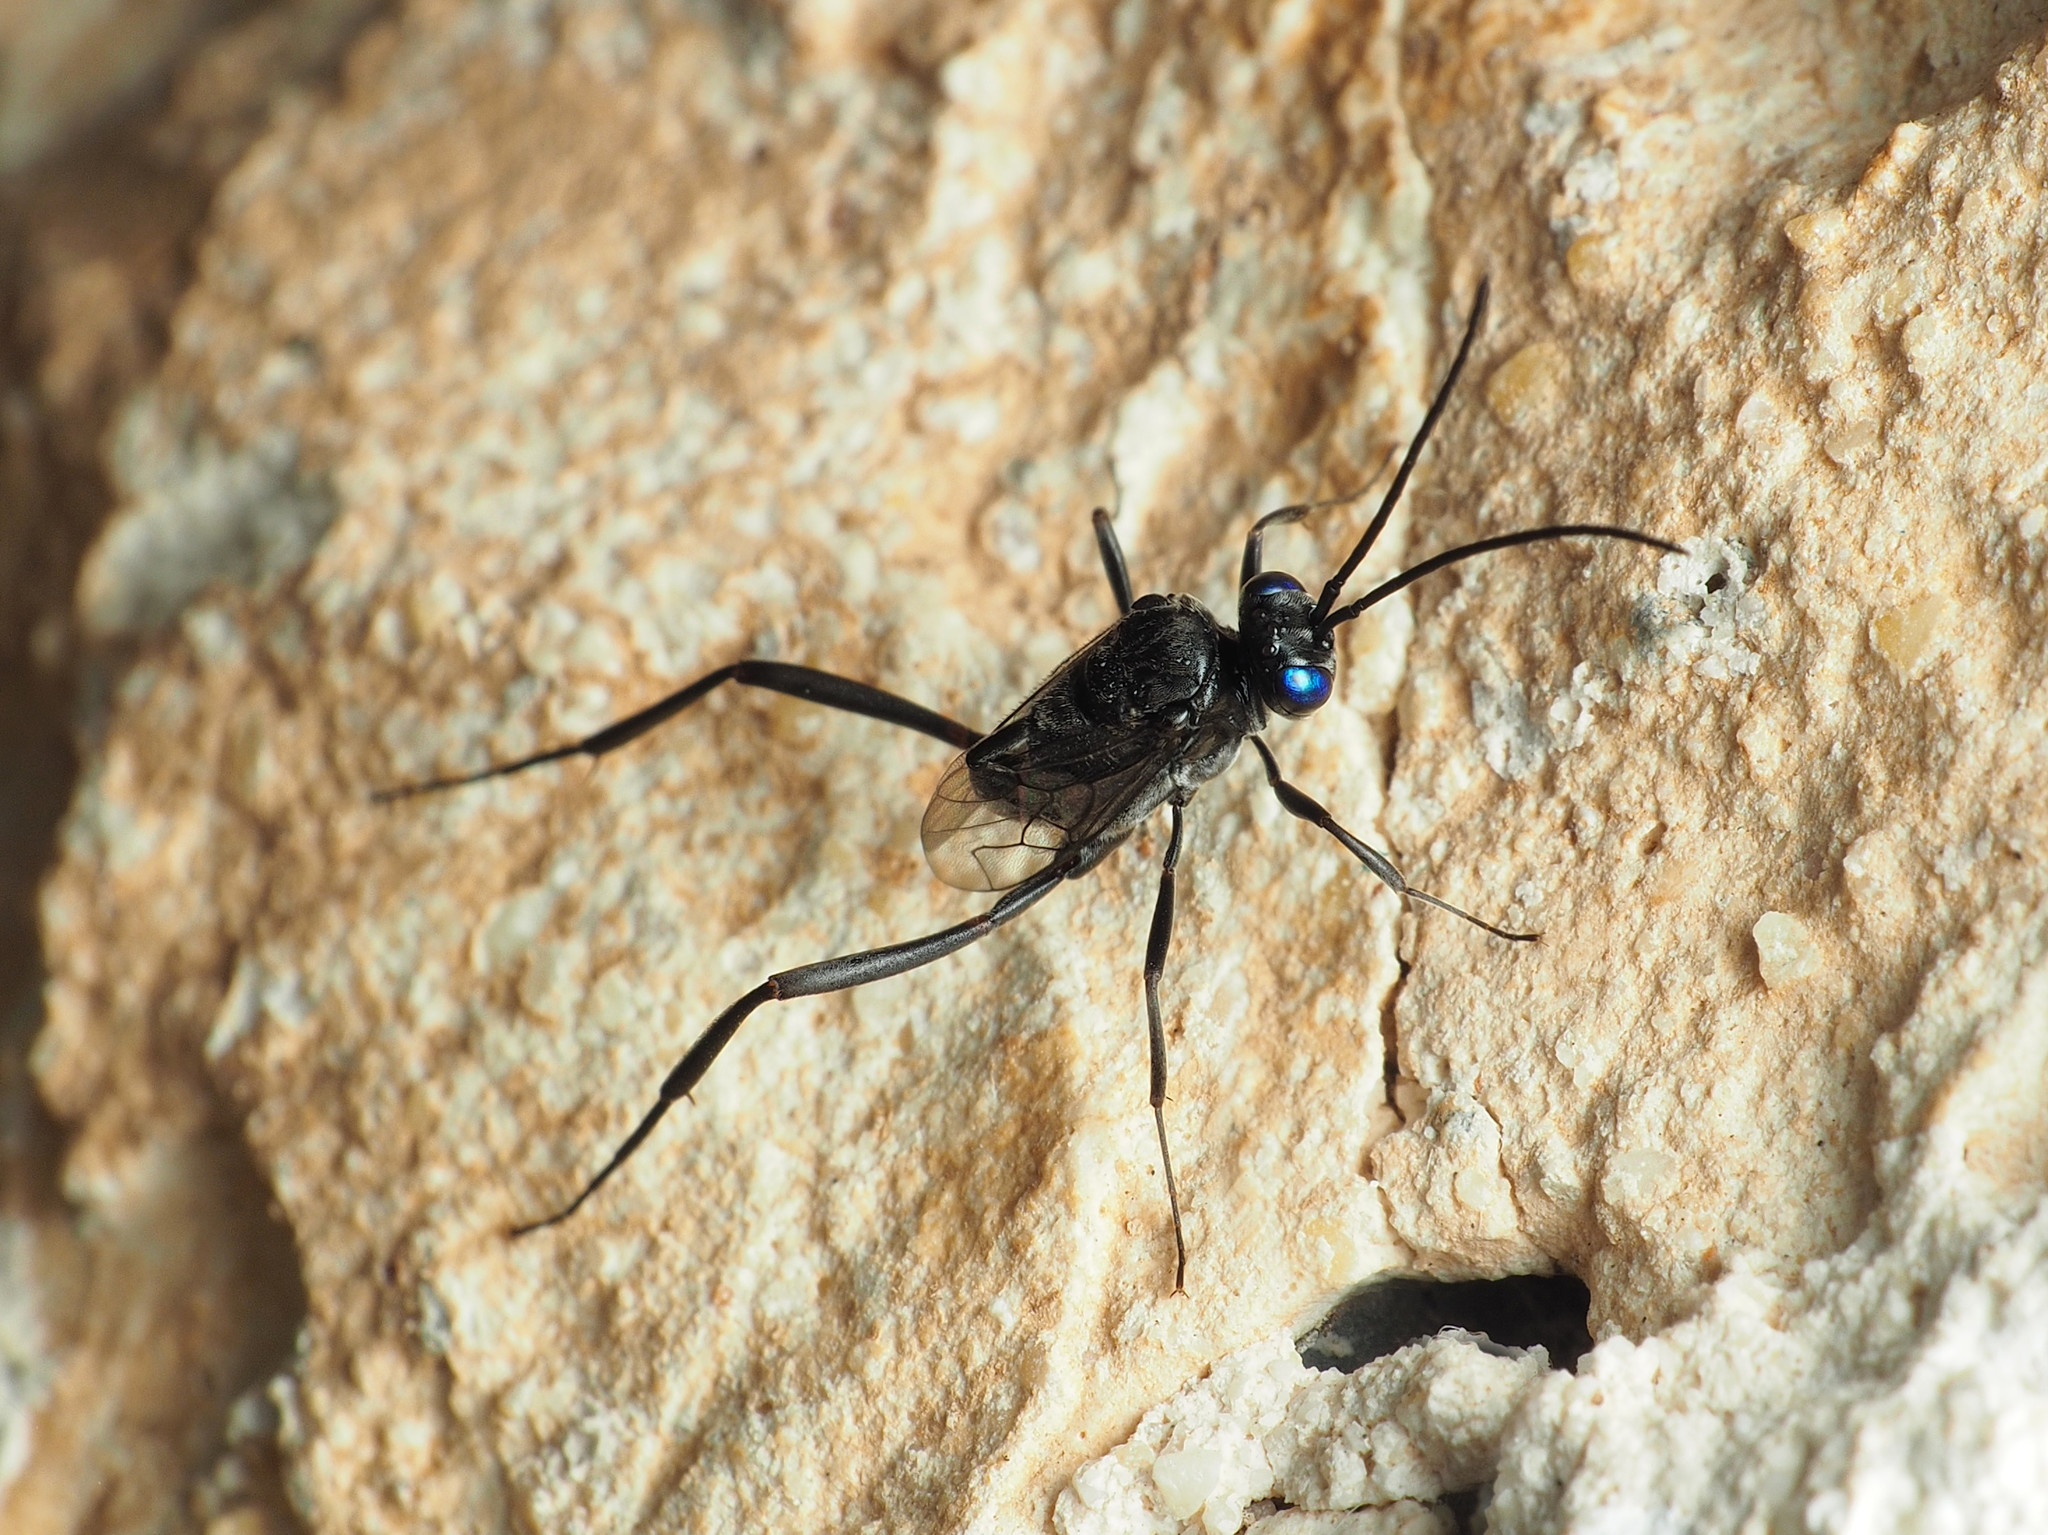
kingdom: Animalia
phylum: Arthropoda
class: Insecta
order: Hymenoptera
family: Evaniidae
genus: Evania
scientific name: Evania appendigaster
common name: Ensign wasp
